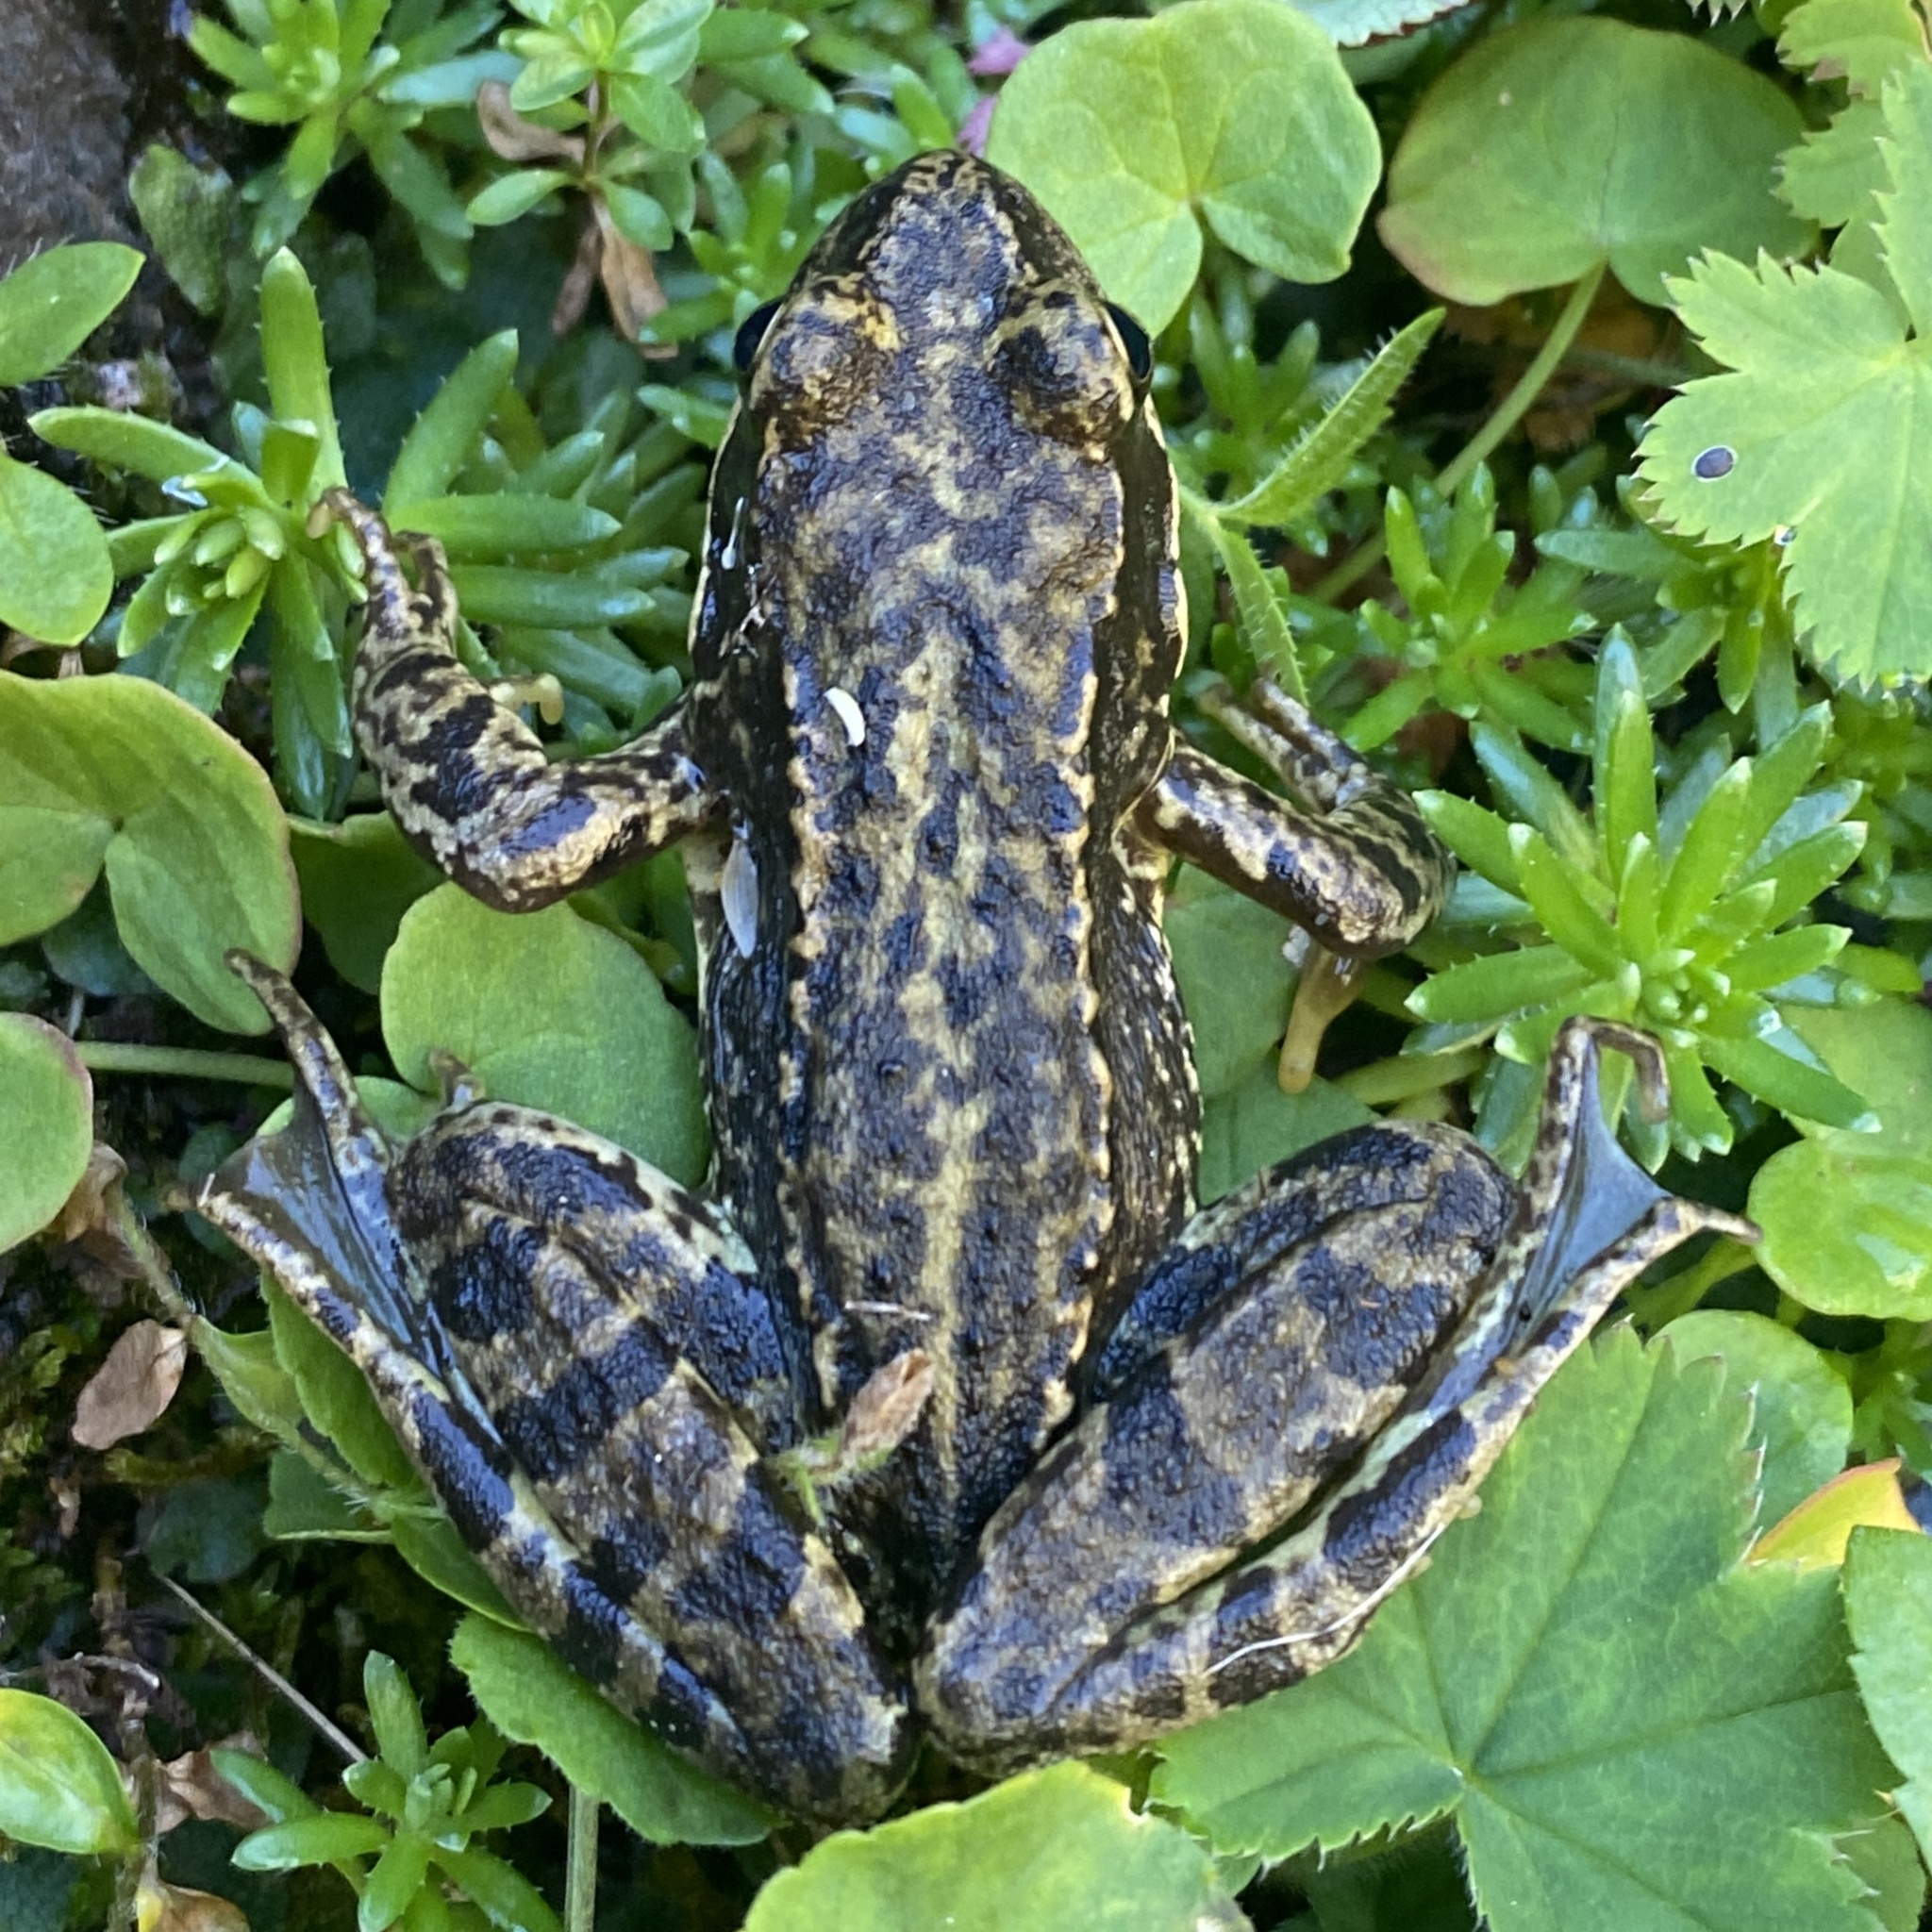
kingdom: Animalia
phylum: Chordata
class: Amphibia
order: Anura
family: Ranidae
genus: Rana
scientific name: Rana temporaria
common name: Common frog
